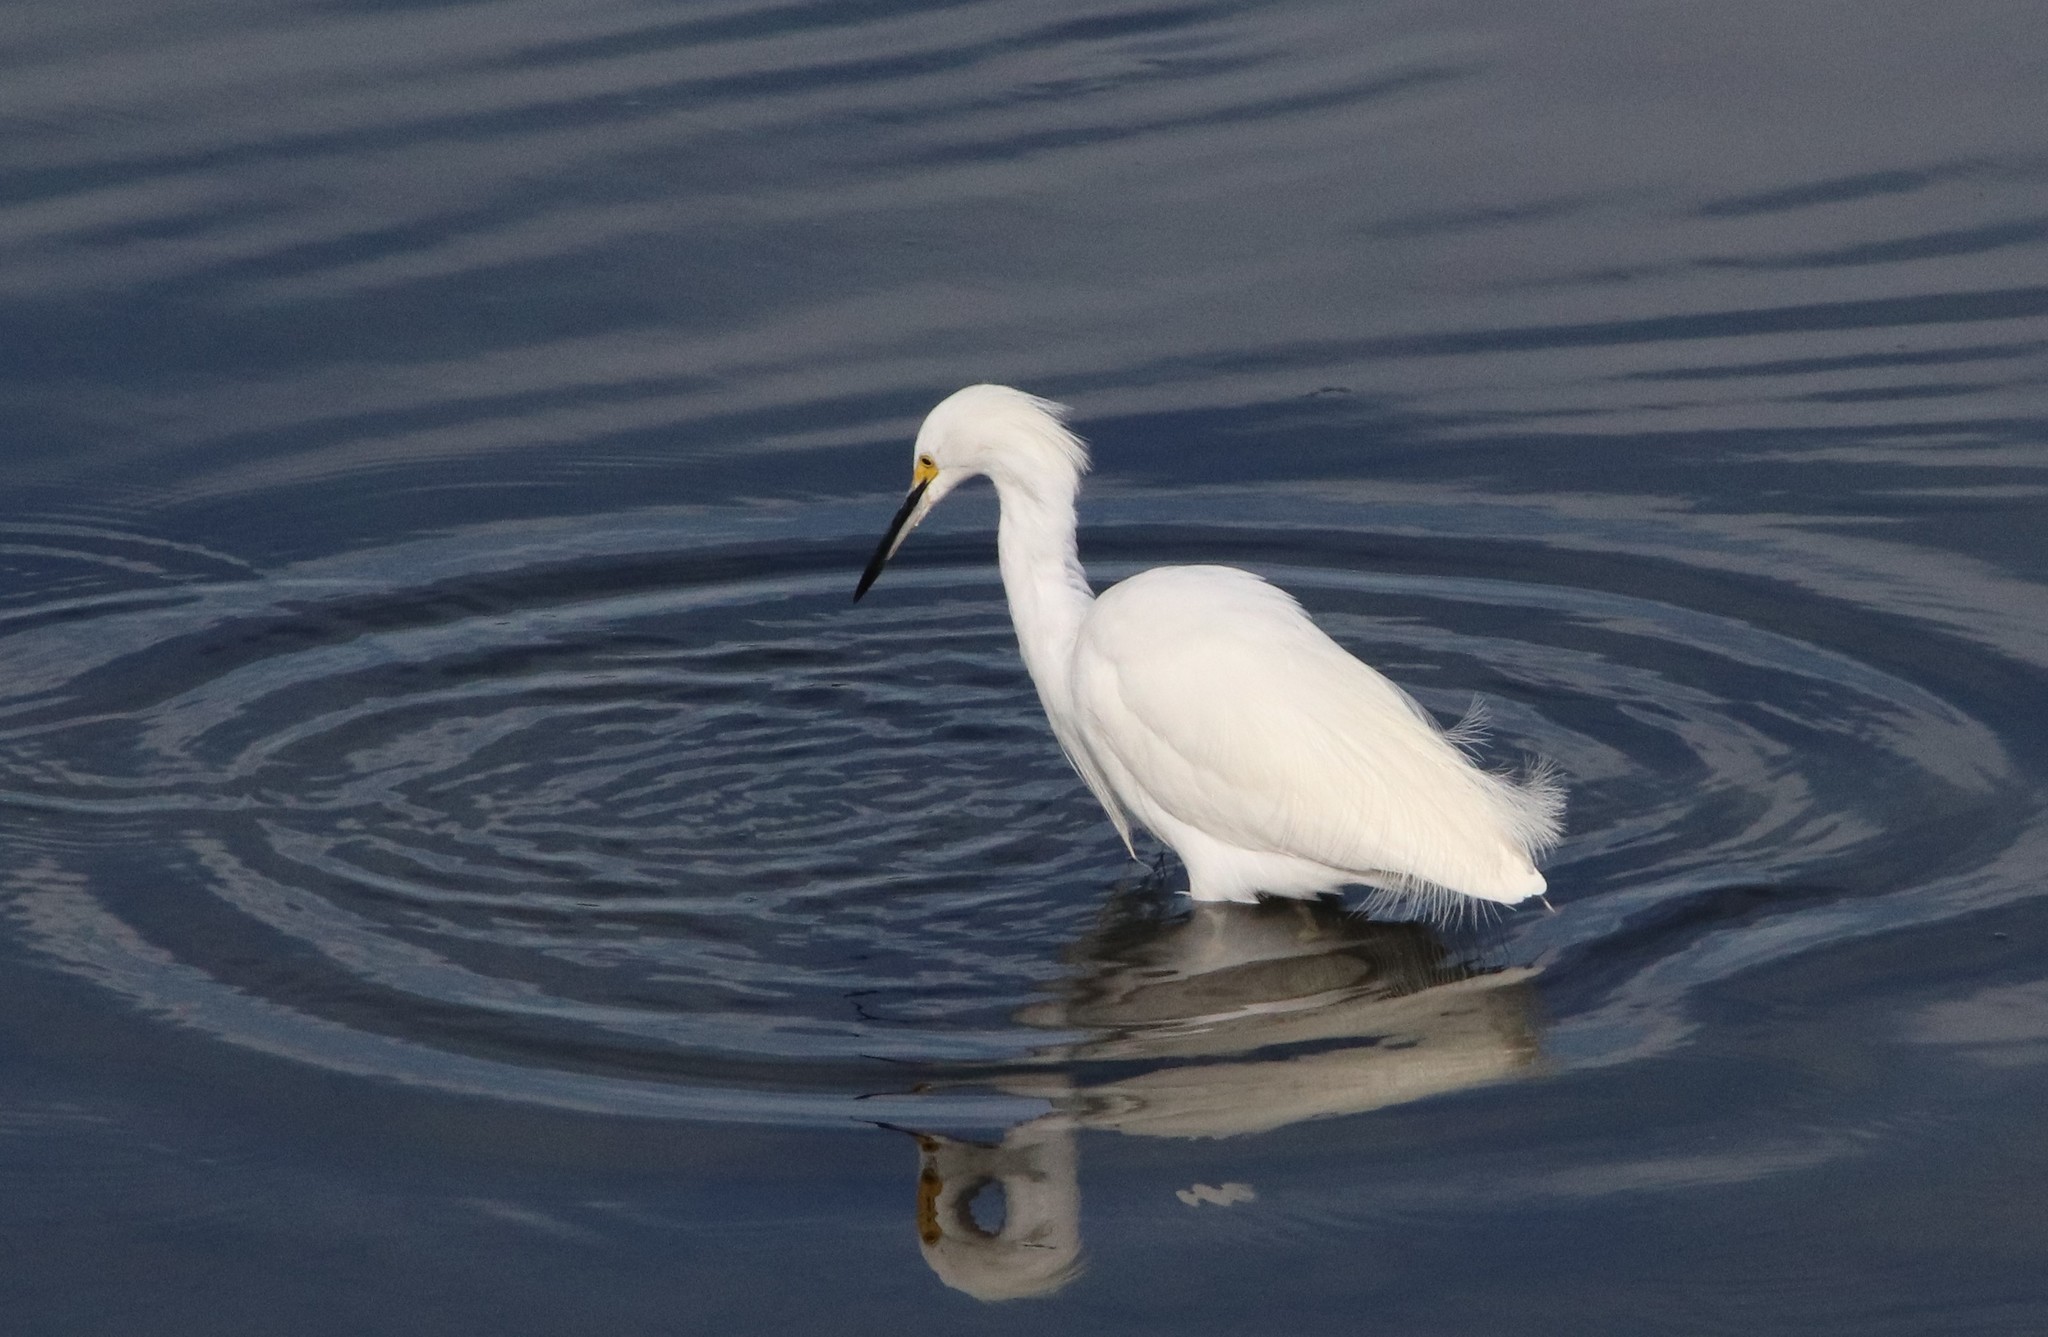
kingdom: Animalia
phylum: Chordata
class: Aves
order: Pelecaniformes
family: Ardeidae
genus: Egretta
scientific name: Egretta thula
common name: Snowy egret
